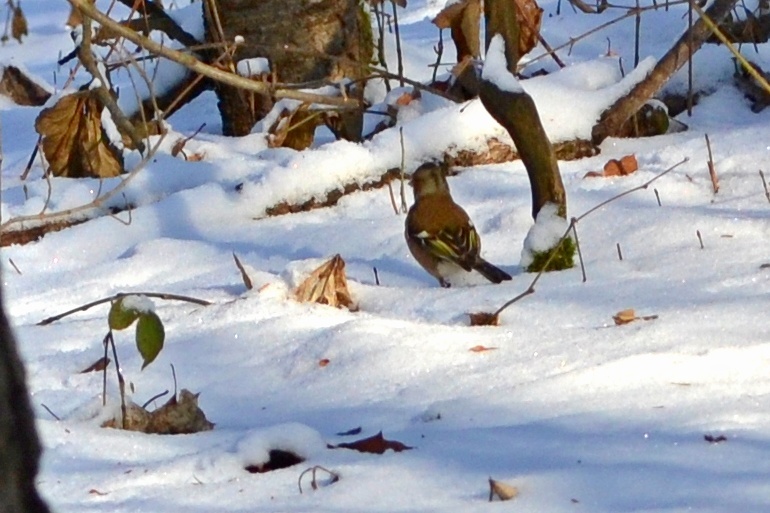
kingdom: Animalia
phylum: Chordata
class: Aves
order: Passeriformes
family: Fringillidae
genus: Fringilla
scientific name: Fringilla coelebs
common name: Common chaffinch
